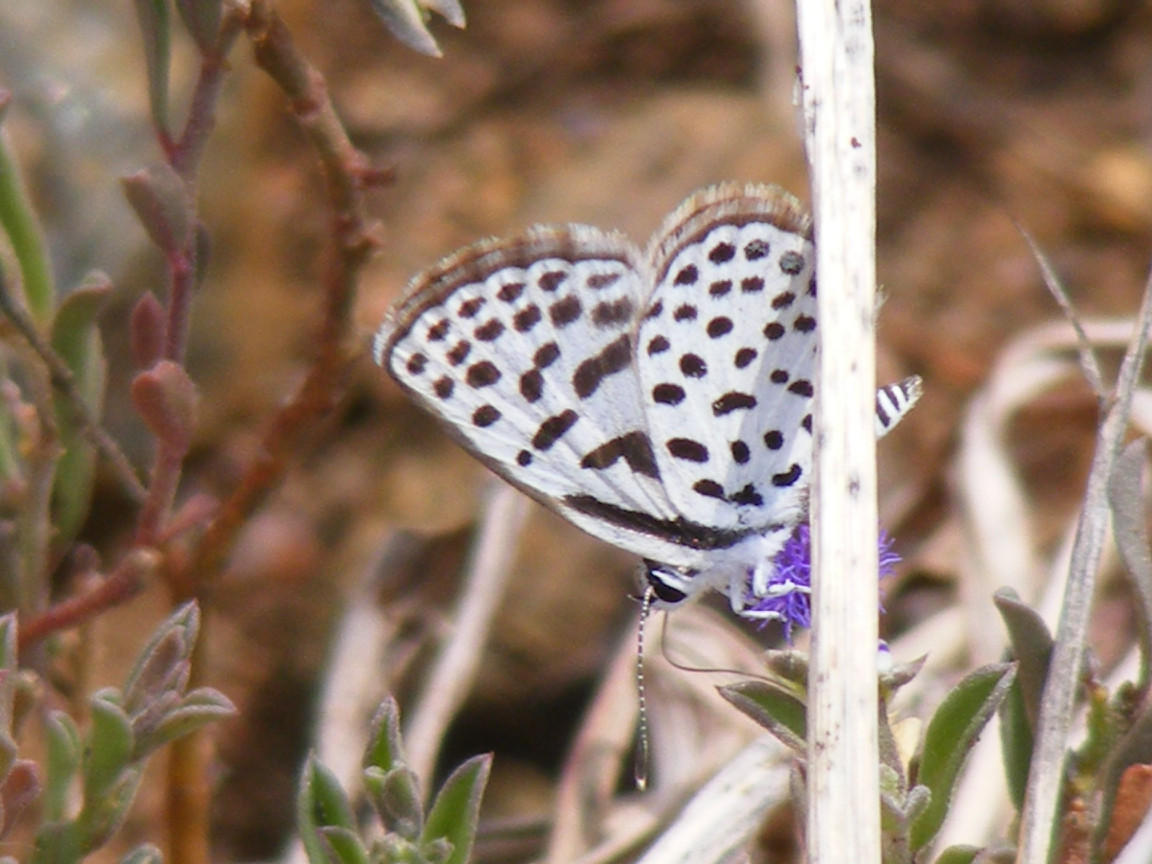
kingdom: Animalia
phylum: Arthropoda
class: Insecta
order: Lepidoptera
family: Lycaenidae
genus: Tarucus
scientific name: Tarucus sybaris
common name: Dotted blue
